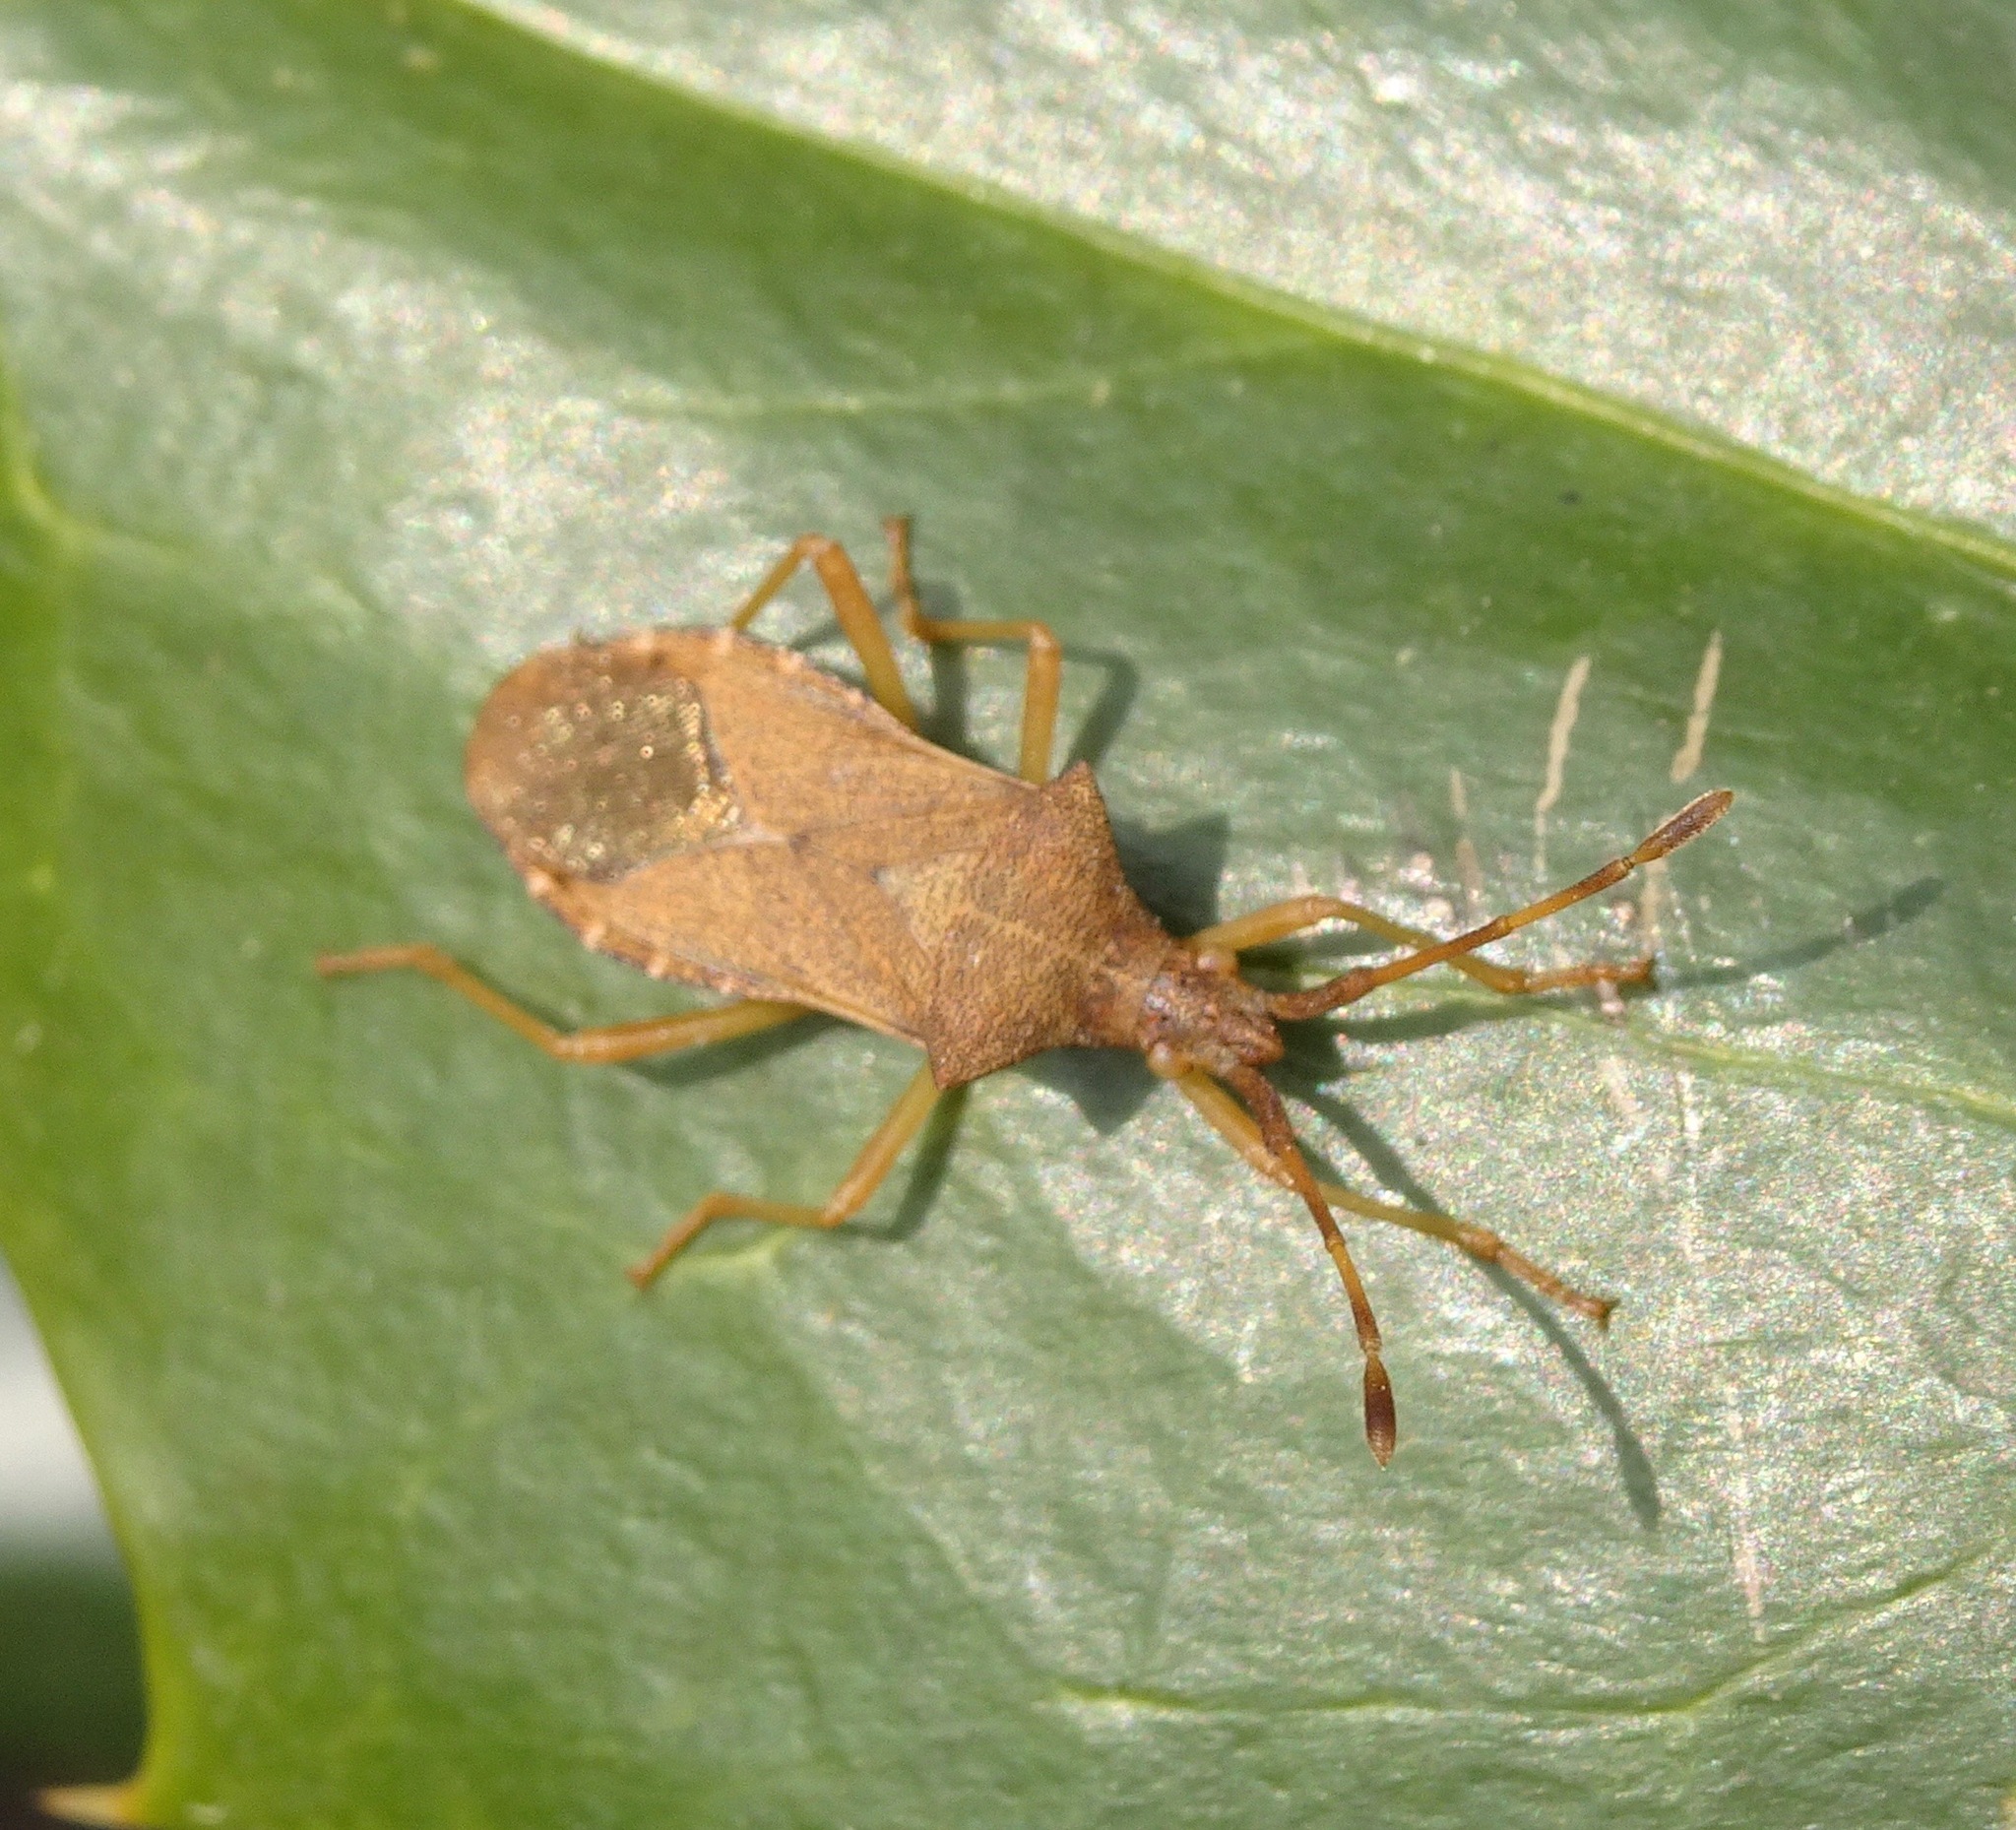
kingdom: Animalia
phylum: Arthropoda
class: Insecta
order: Hemiptera
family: Coreidae
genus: Gonocerus
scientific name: Gonocerus acuteangulatus
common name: Box bug
